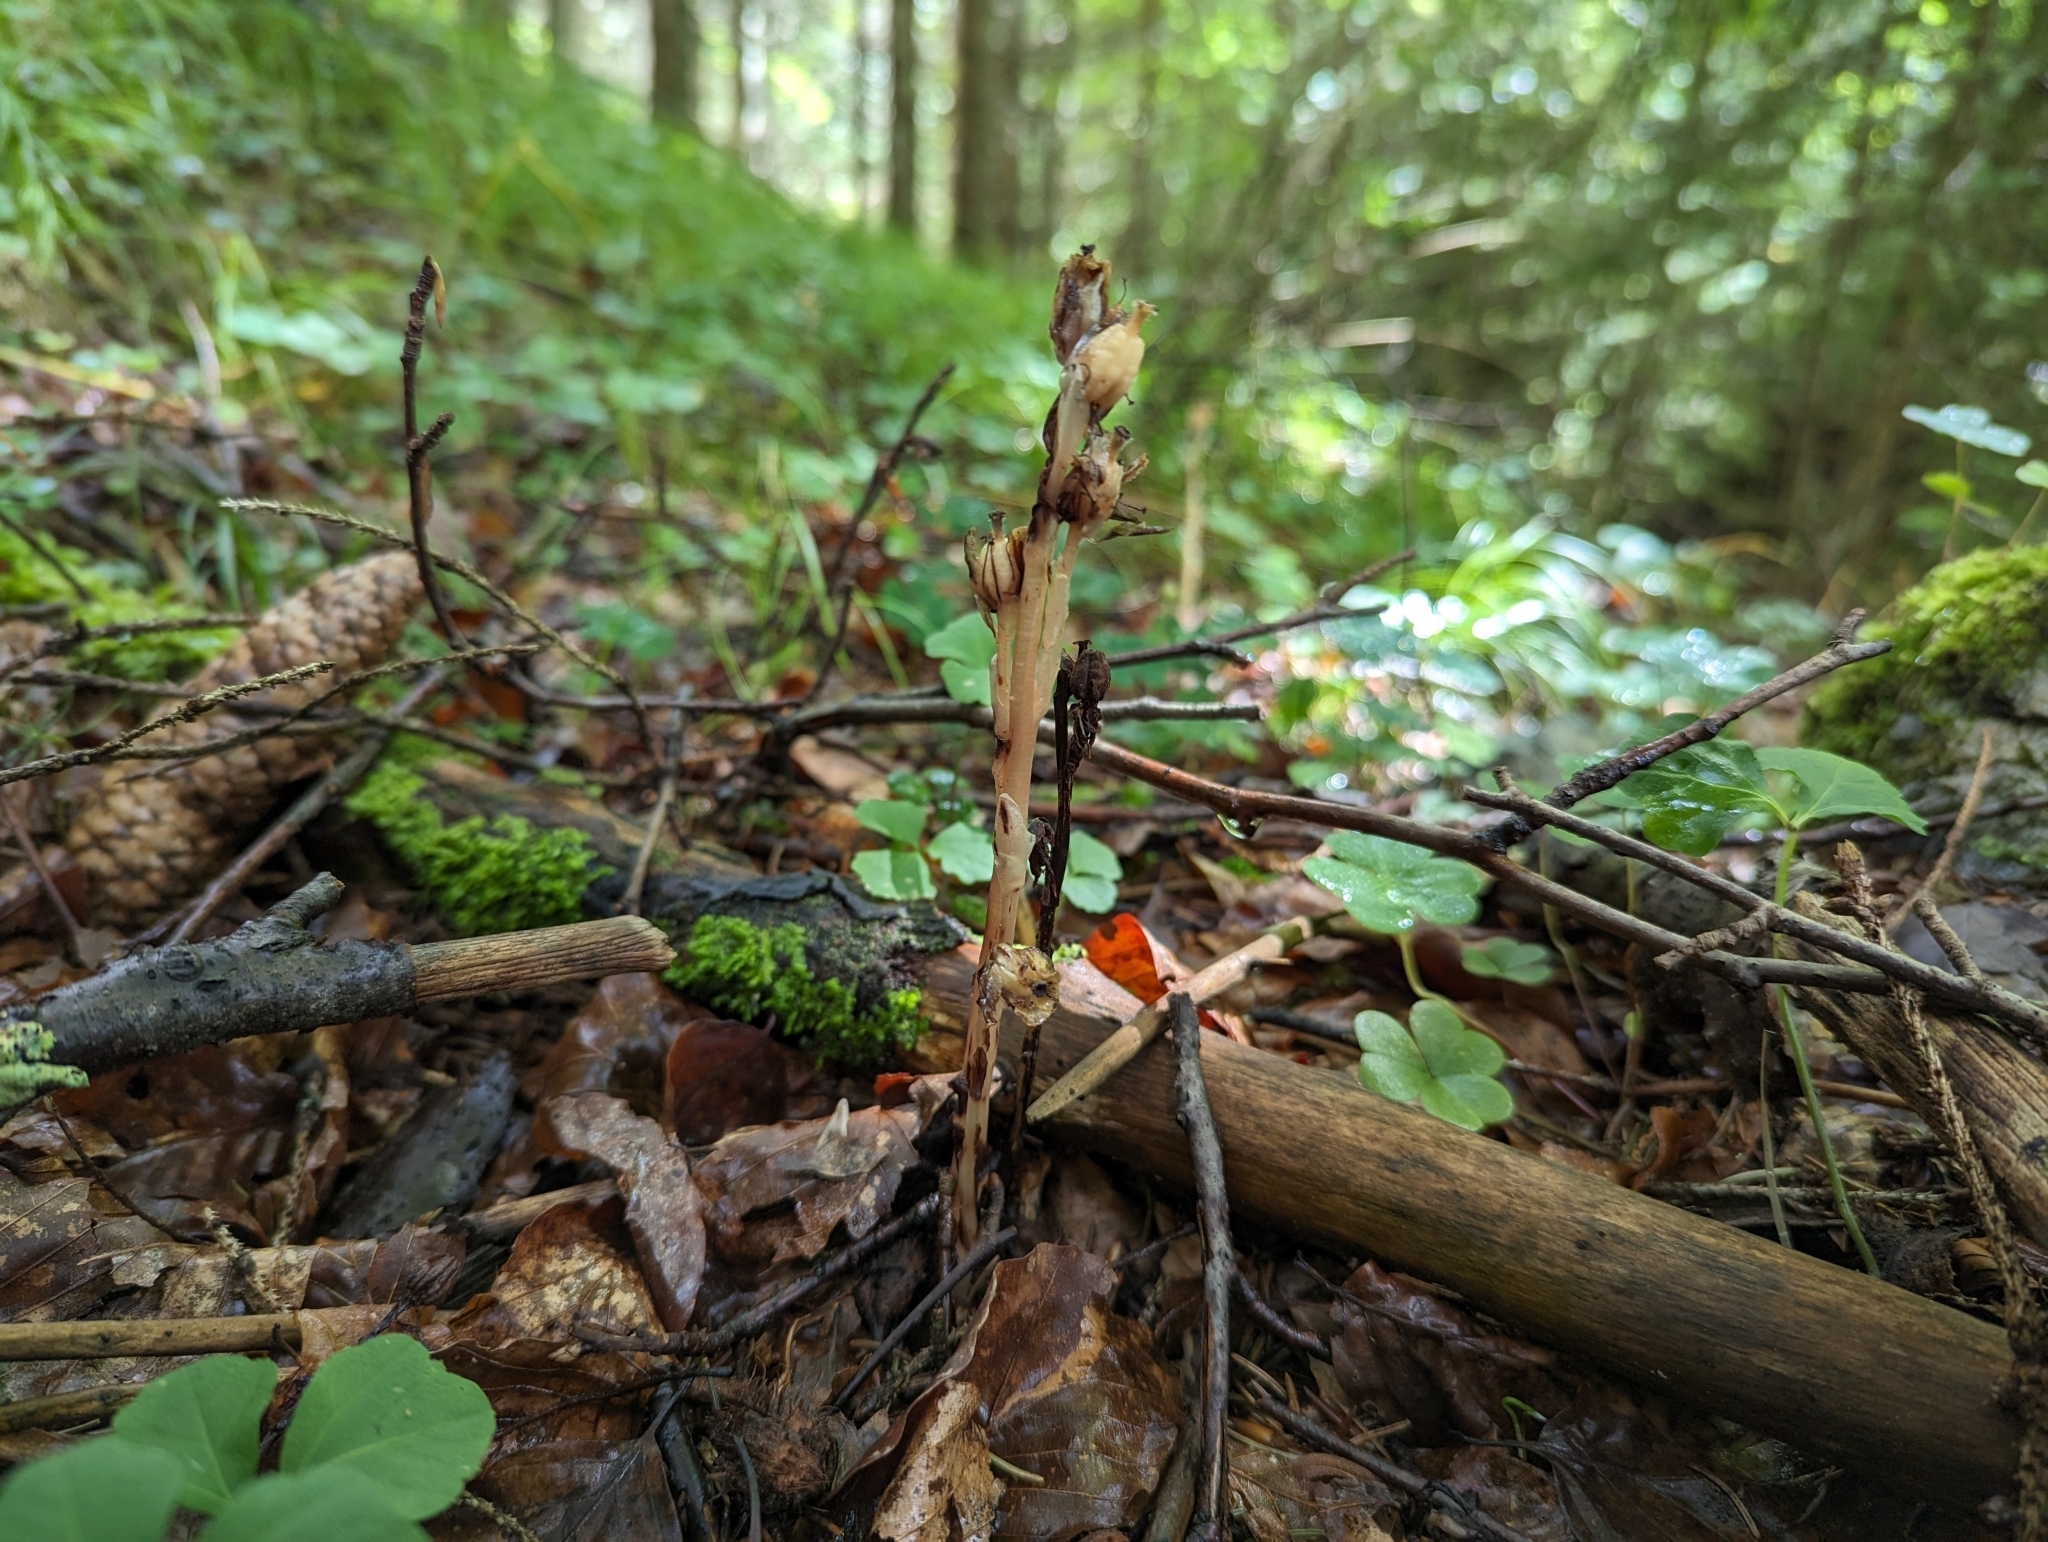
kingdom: Plantae
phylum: Tracheophyta
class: Magnoliopsida
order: Ericales
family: Ericaceae
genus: Hypopitys
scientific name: Hypopitys monotropa
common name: Yellow bird's-nest
